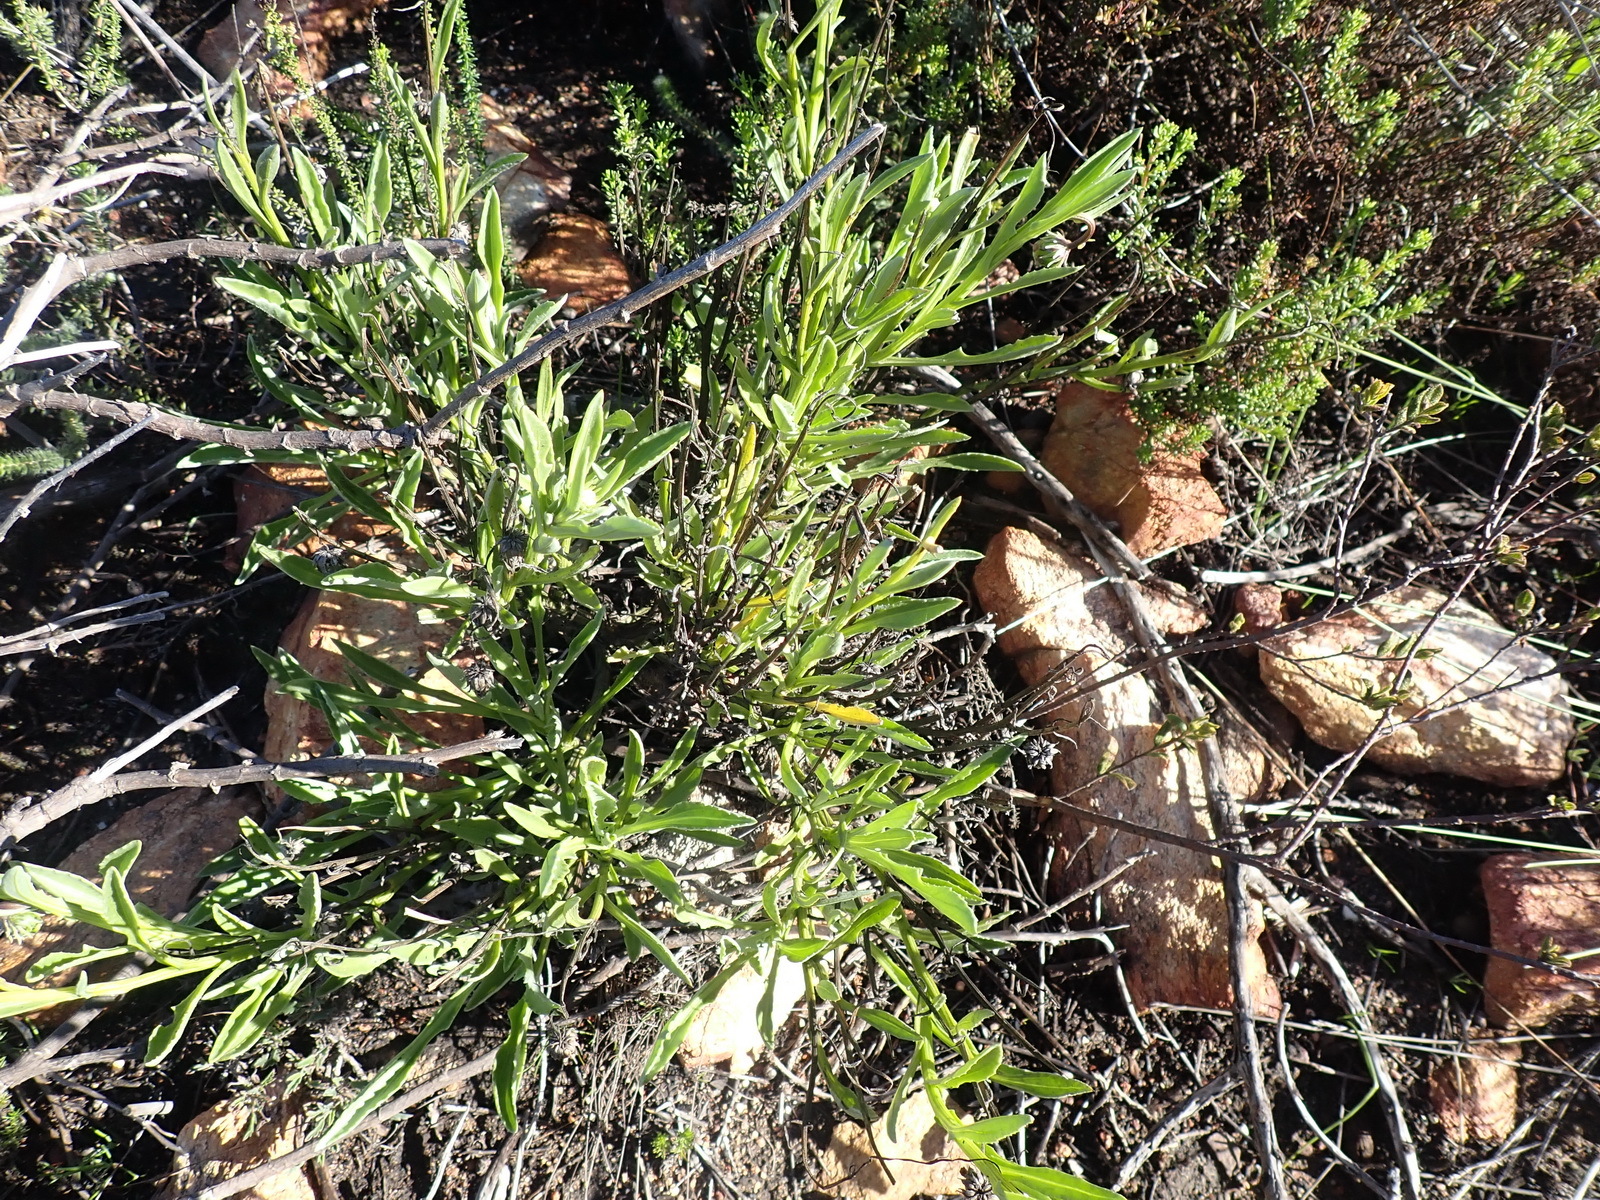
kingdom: Plantae
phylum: Tracheophyta
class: Magnoliopsida
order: Asterales
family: Asteraceae
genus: Arctotis
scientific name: Arctotis lanceolata
